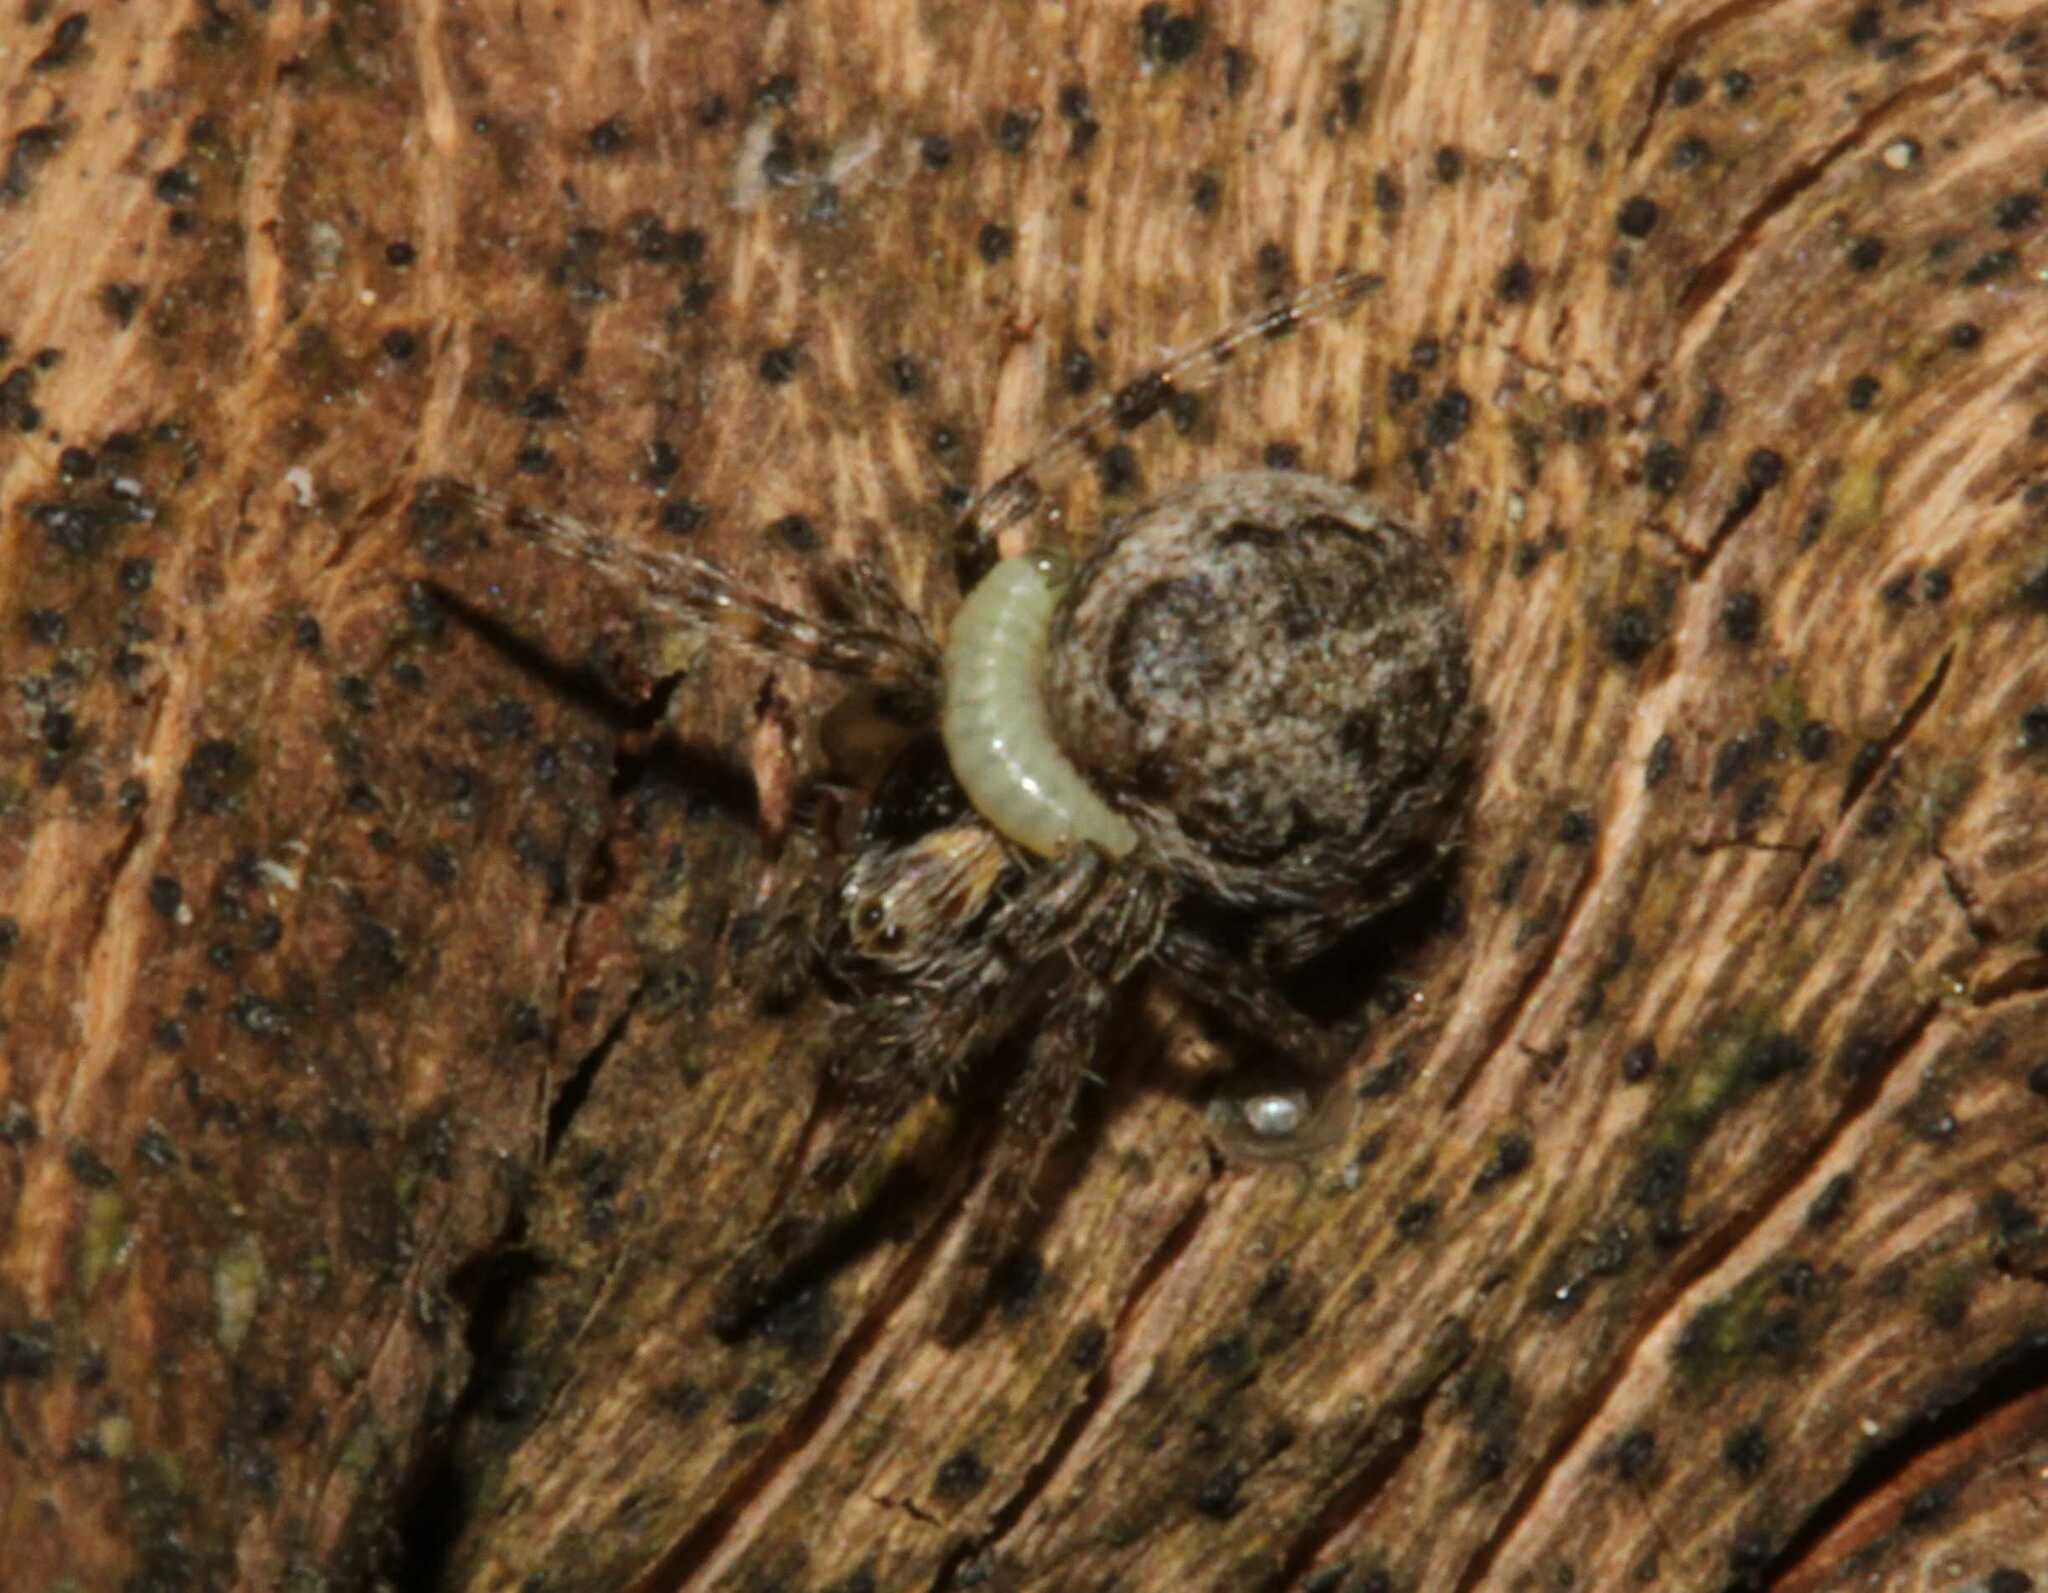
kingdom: Animalia
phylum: Arthropoda
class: Arachnida
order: Araneae
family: Araneidae
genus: Larinioides
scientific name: Larinioides
